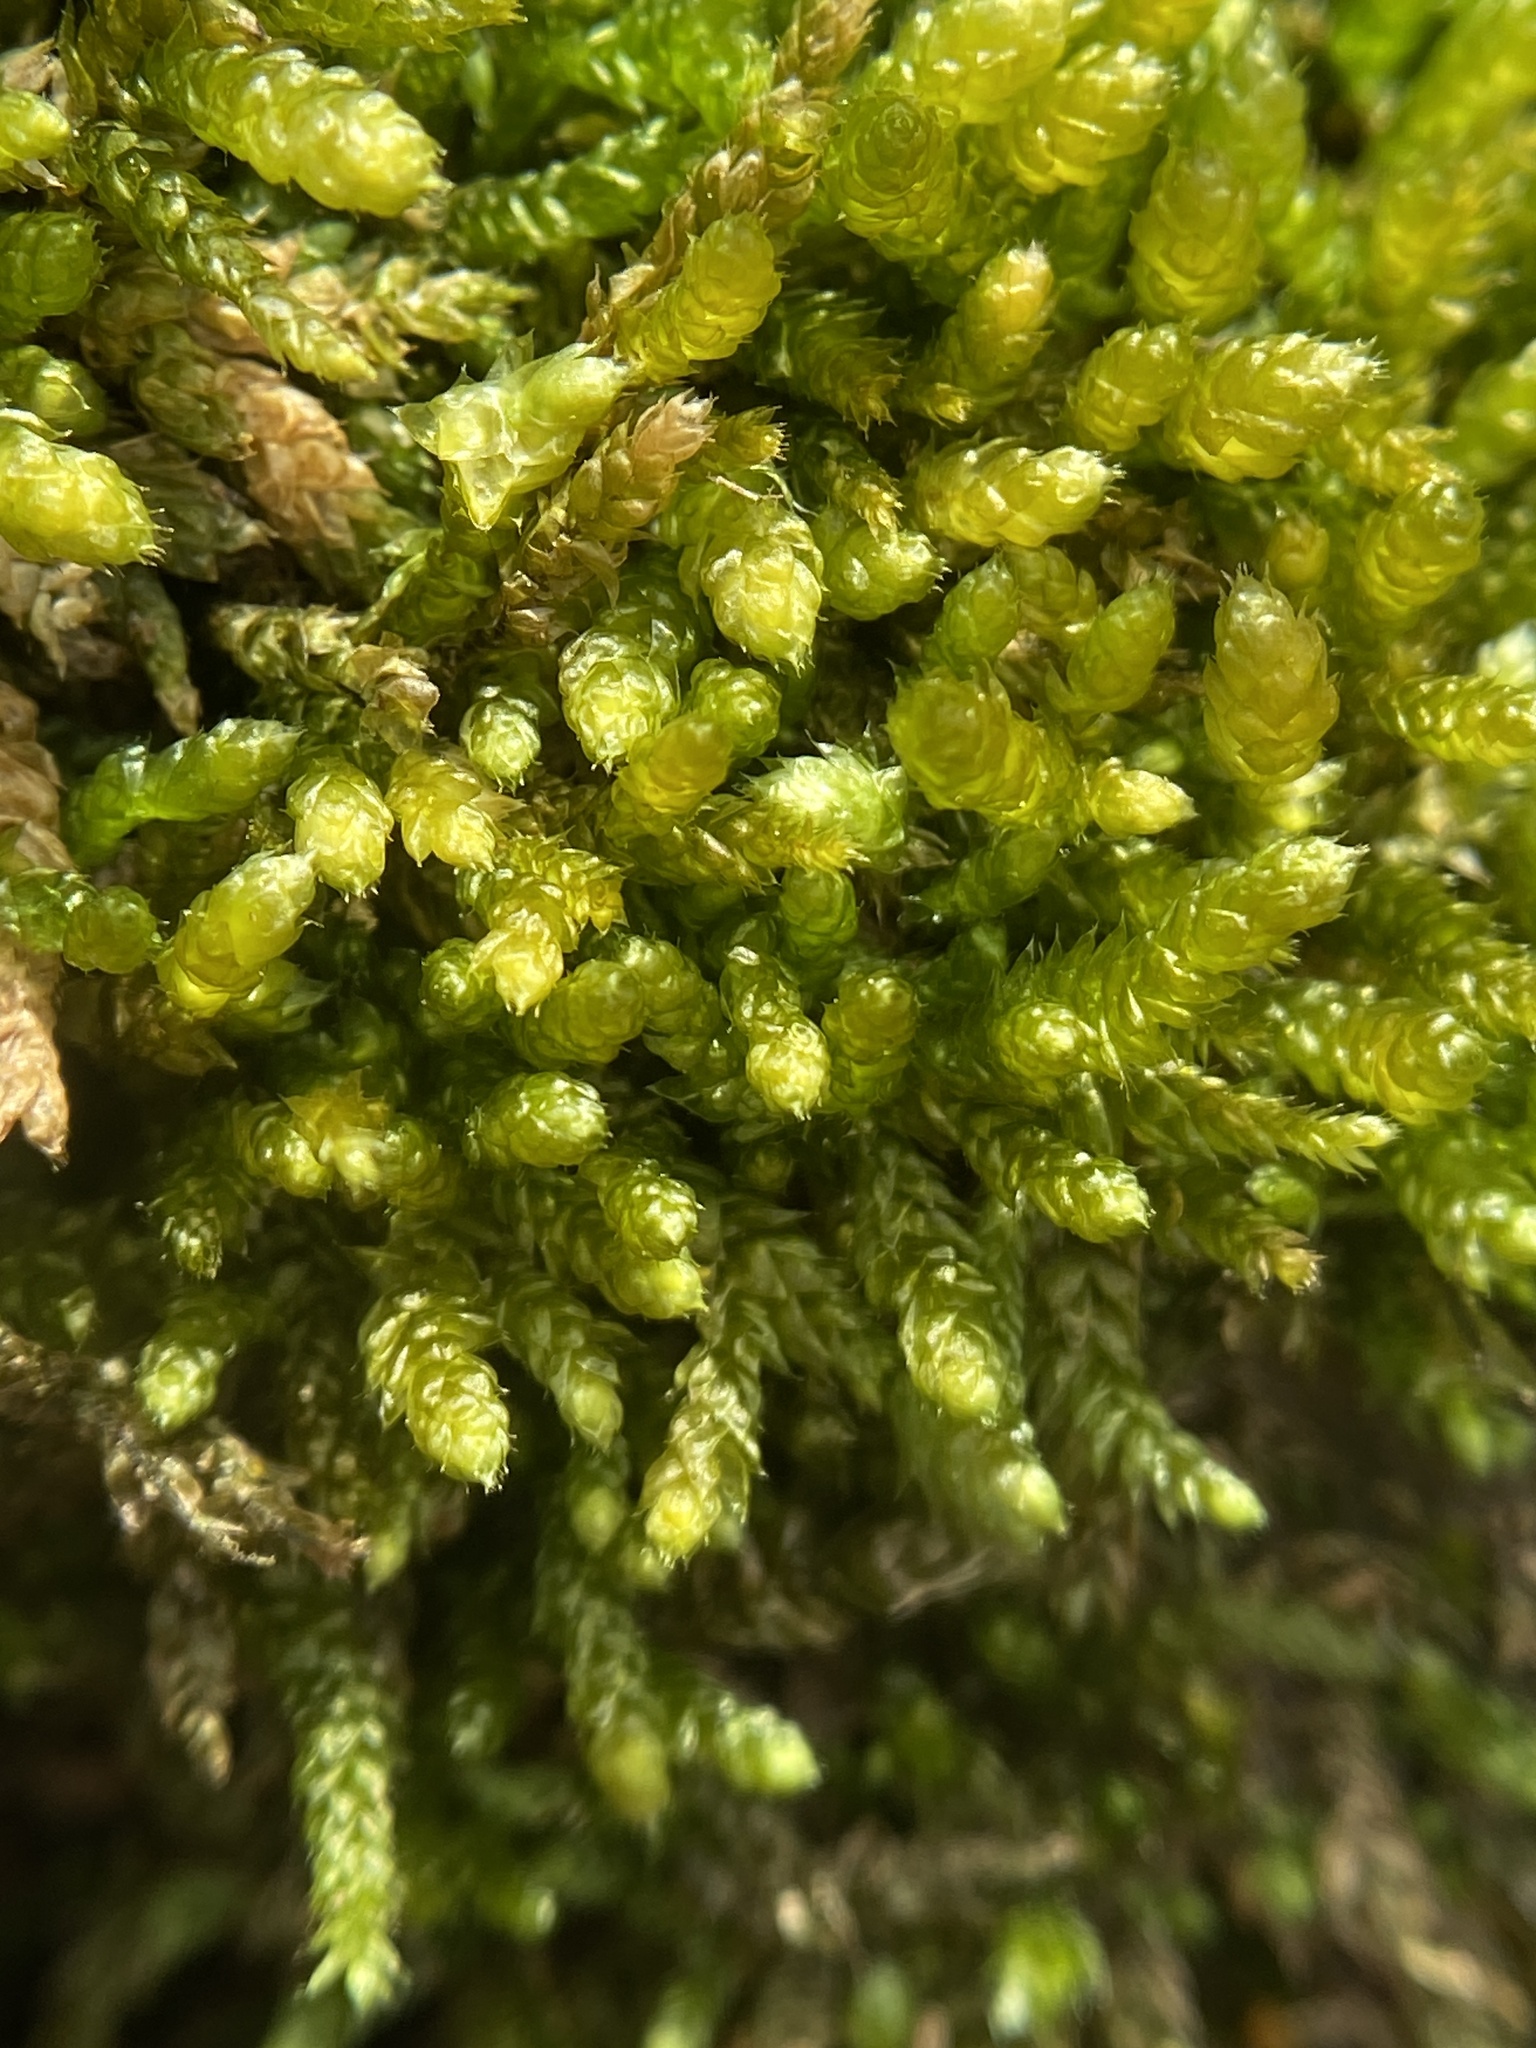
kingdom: Plantae
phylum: Bryophyta
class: Bryopsida
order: Hypnales
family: Brachytheciaceae
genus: Bryoandersonia
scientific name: Bryoandersonia illecebra
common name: Spoon-leaved moss
